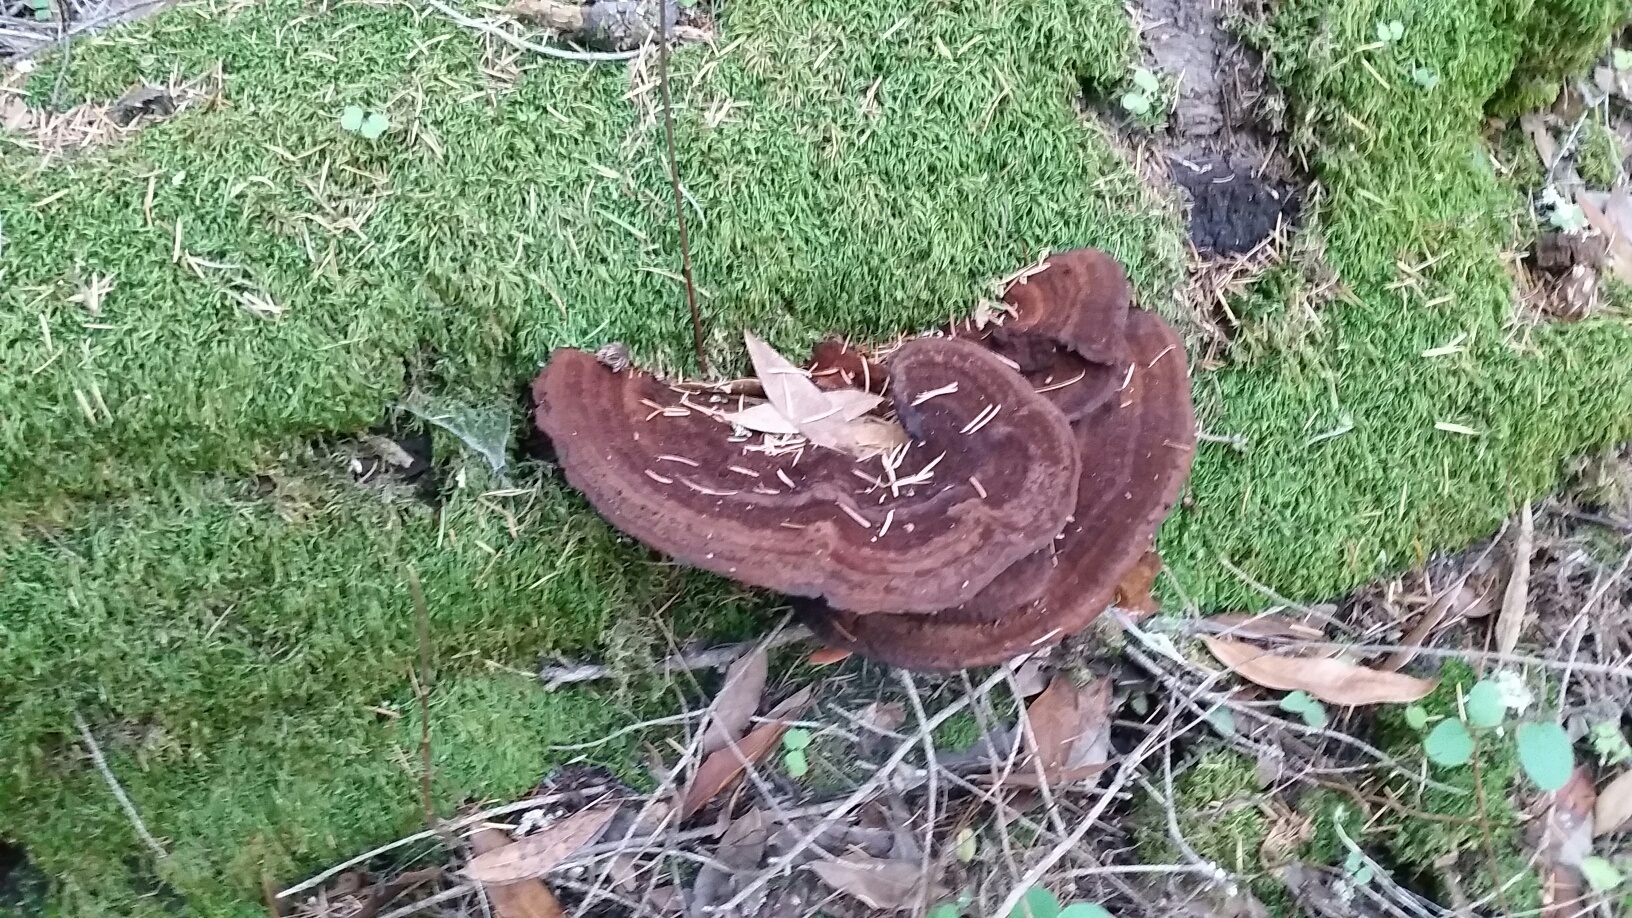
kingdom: Fungi
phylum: Basidiomycota
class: Agaricomycetes
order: Hymenochaetales
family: Hymenochaetaceae
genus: Porodaedalea
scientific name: Porodaedalea pini
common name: Pine bracket
